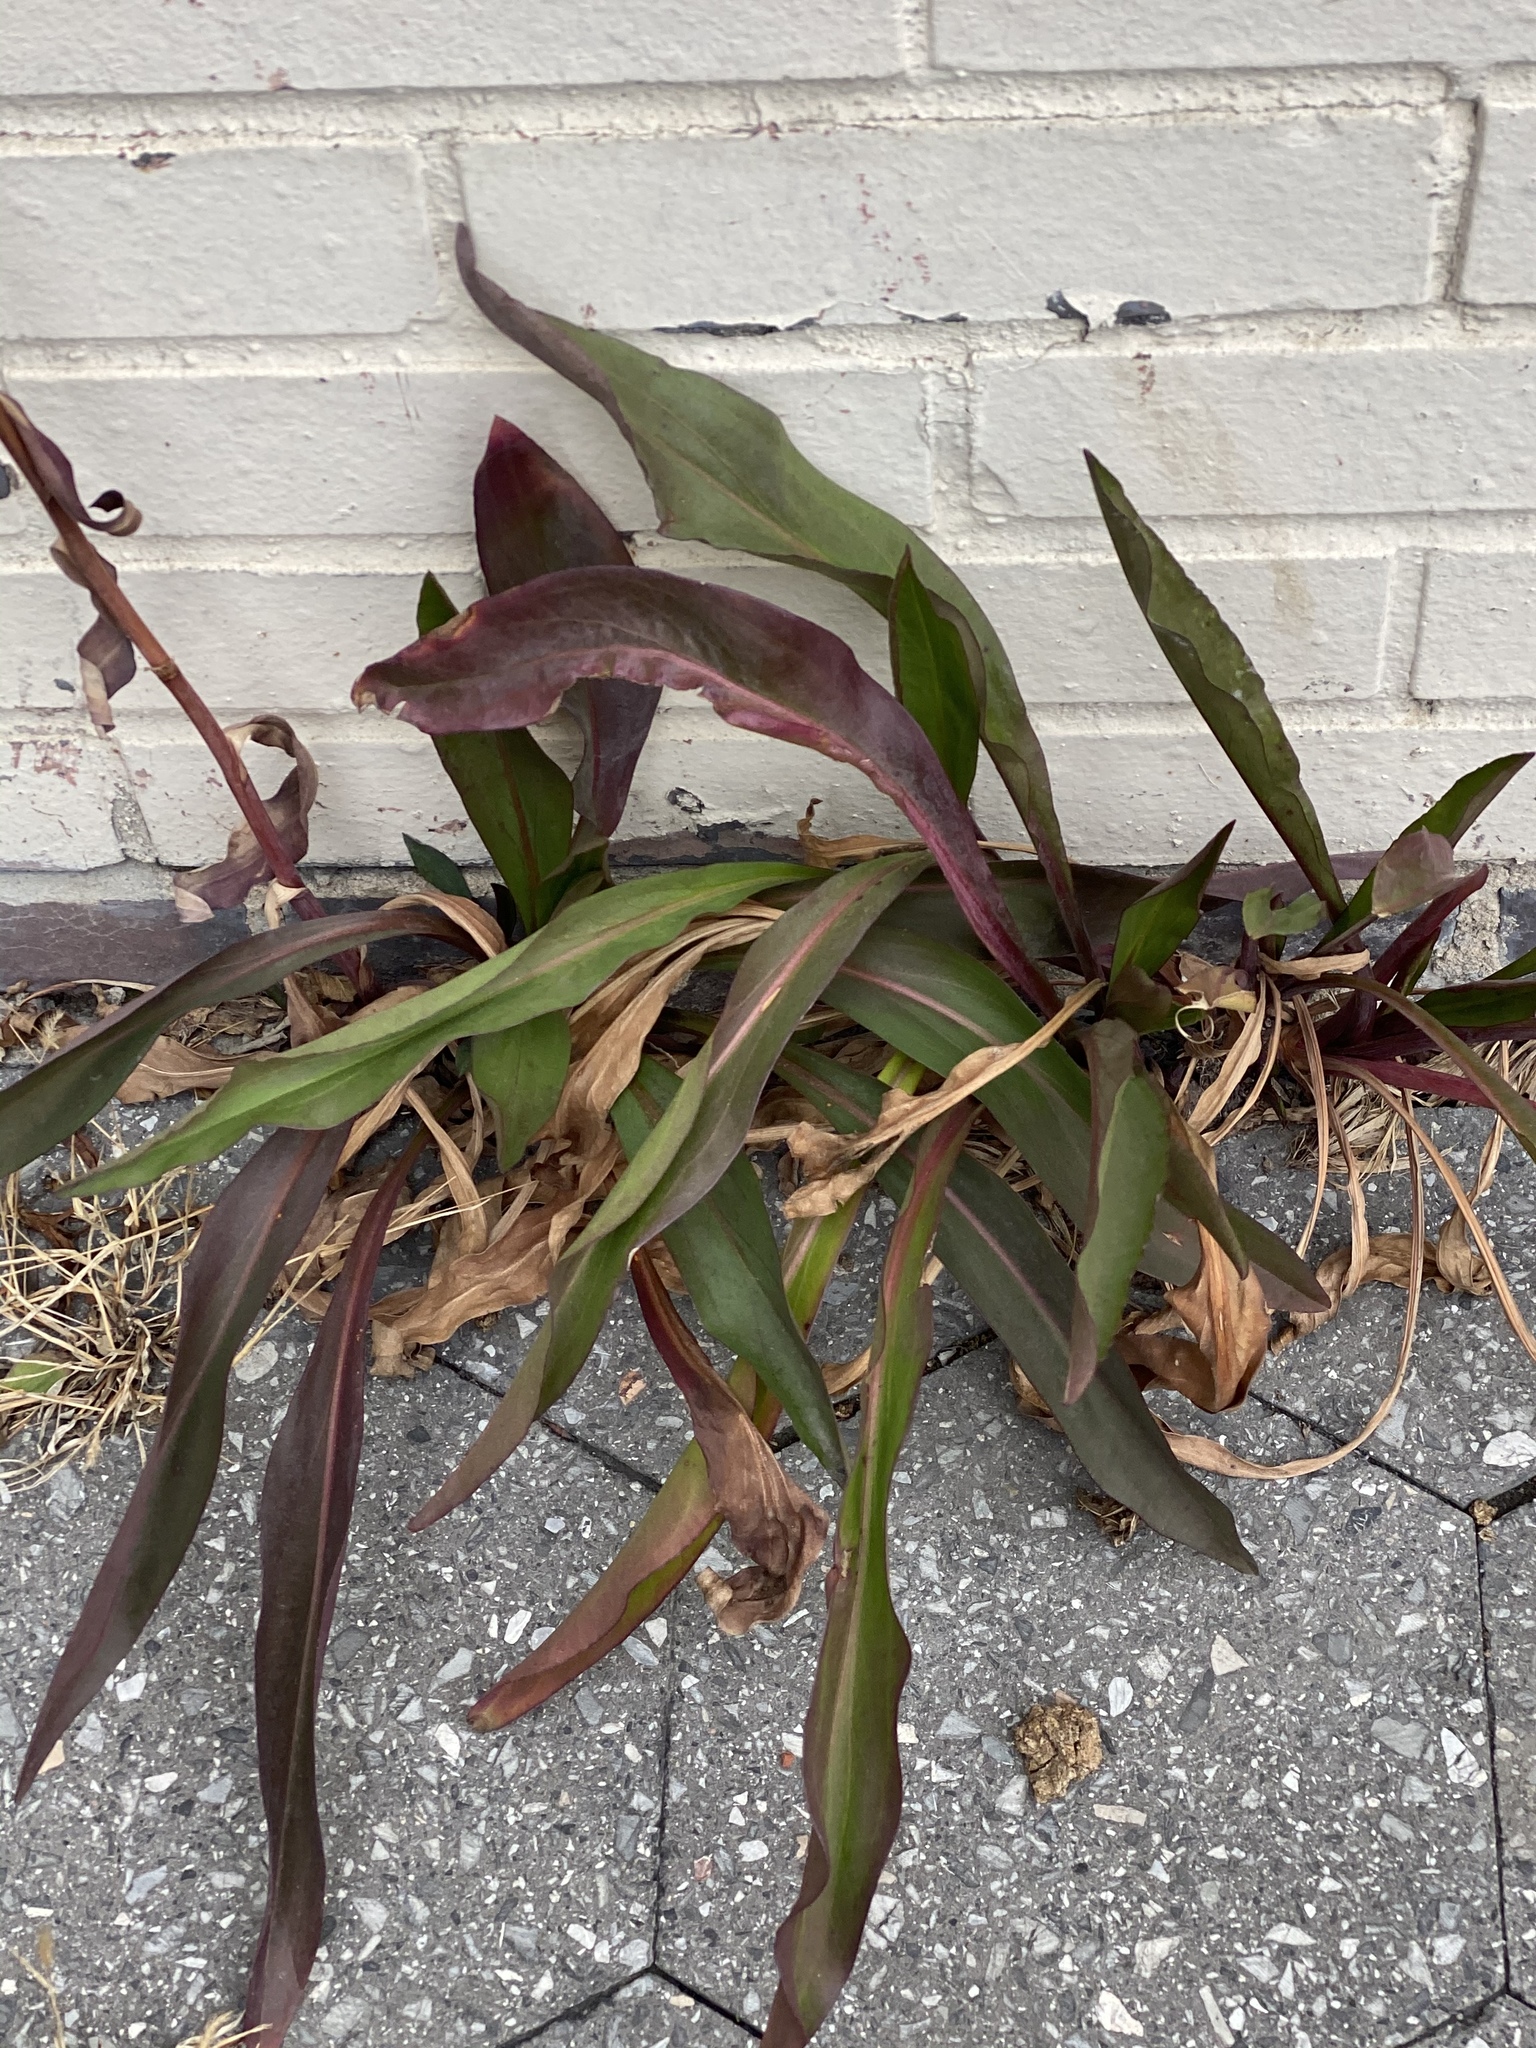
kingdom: Plantae
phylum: Tracheophyta
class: Magnoliopsida
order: Asterales
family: Asteraceae
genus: Solidago
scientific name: Solidago sempervirens
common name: Salt-marsh goldenrod
